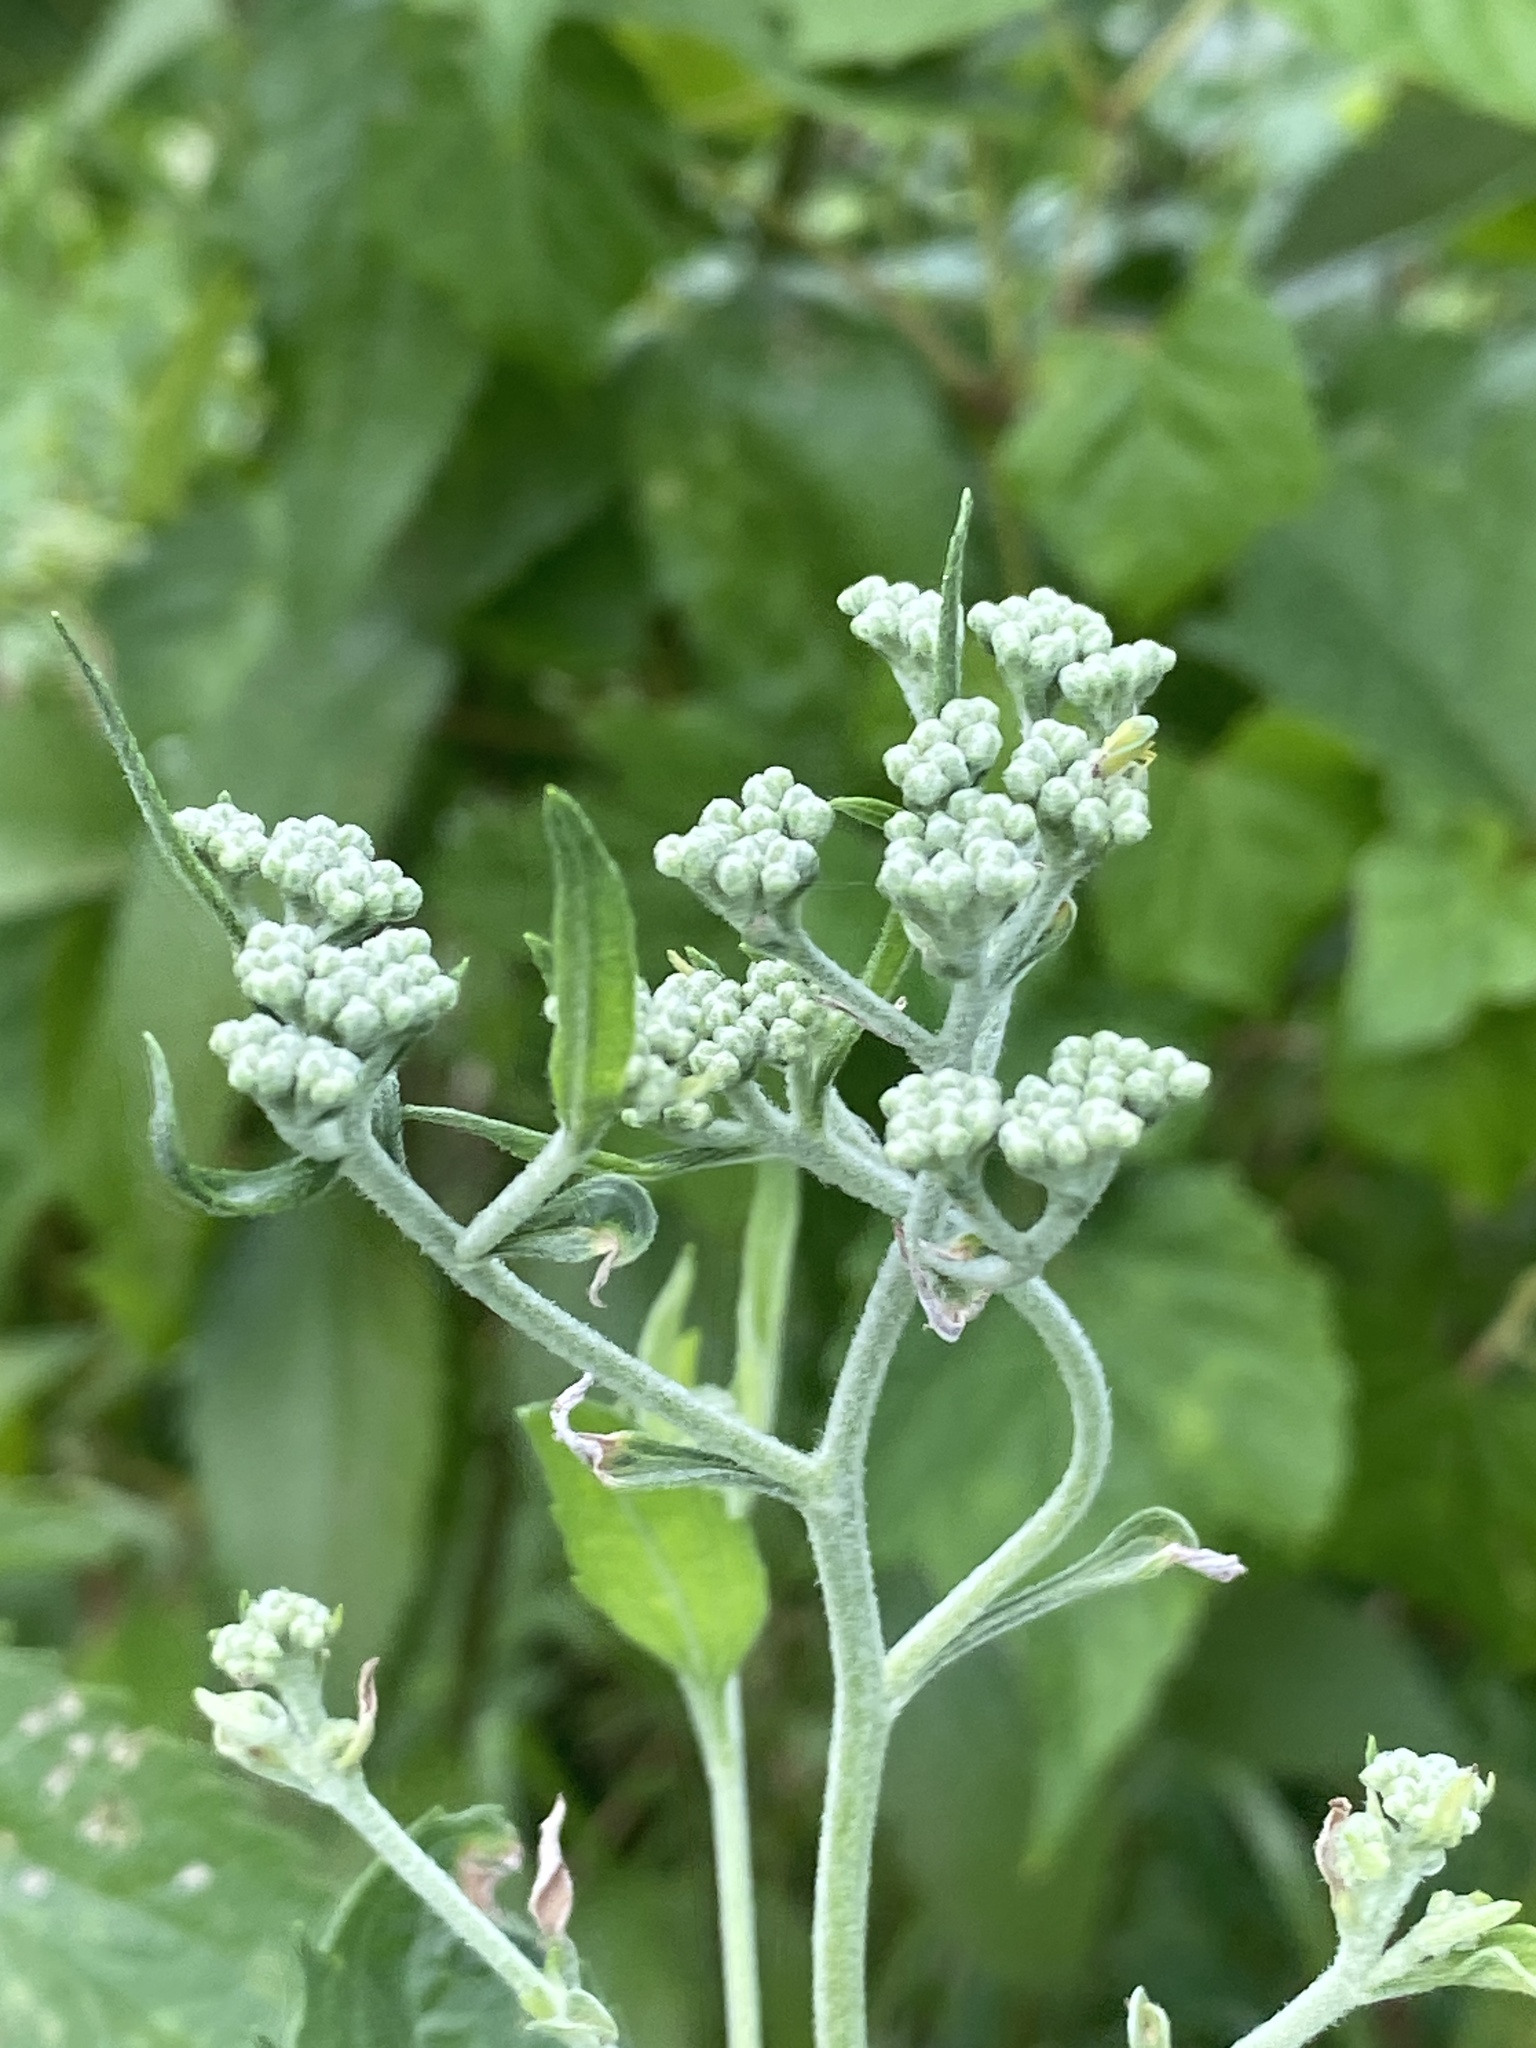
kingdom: Plantae
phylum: Tracheophyta
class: Magnoliopsida
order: Asterales
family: Asteraceae
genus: Eupatorium
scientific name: Eupatorium serotinum
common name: Late boneset
